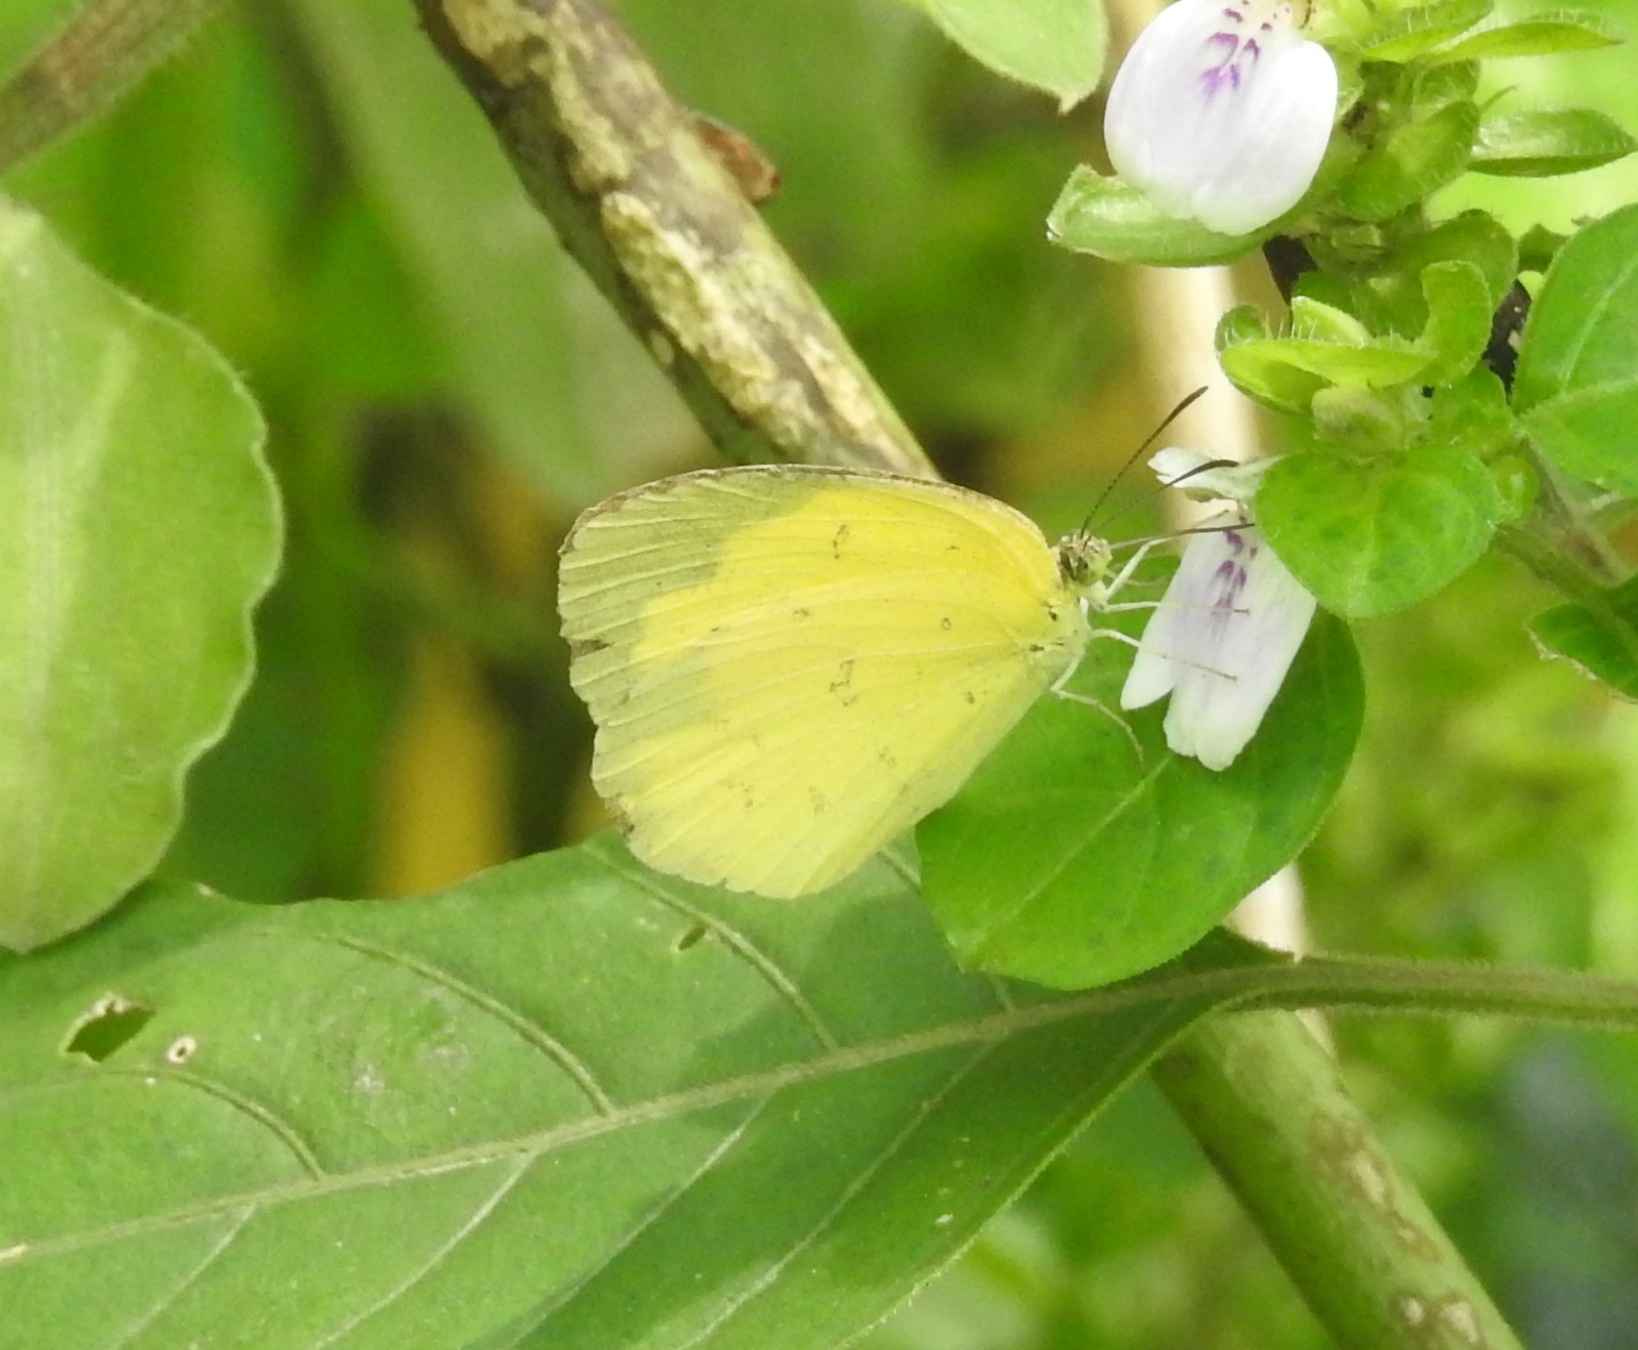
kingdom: Animalia
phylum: Arthropoda
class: Insecta
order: Lepidoptera
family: Pieridae
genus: Eurema
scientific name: Eurema hecabe
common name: Pale grass yellow
